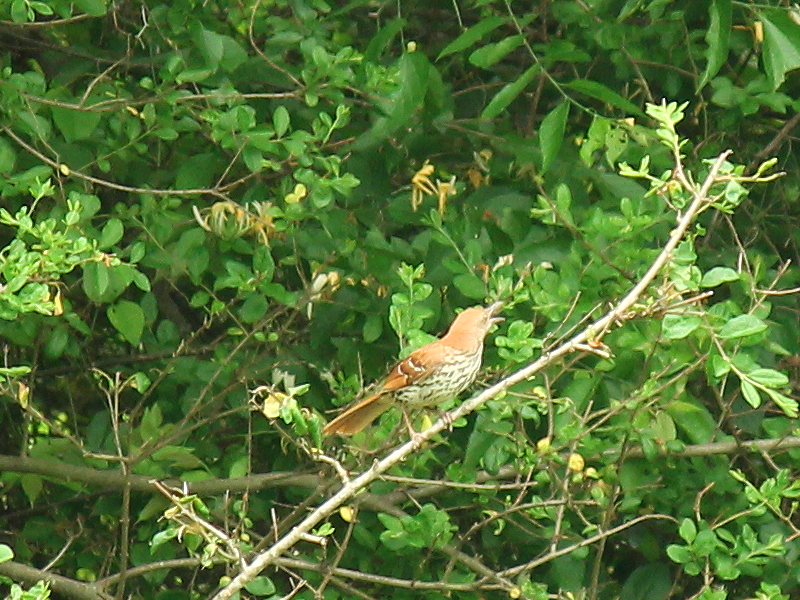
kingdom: Animalia
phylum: Chordata
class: Aves
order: Passeriformes
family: Mimidae
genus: Toxostoma
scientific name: Toxostoma rufum
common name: Brown thrasher
